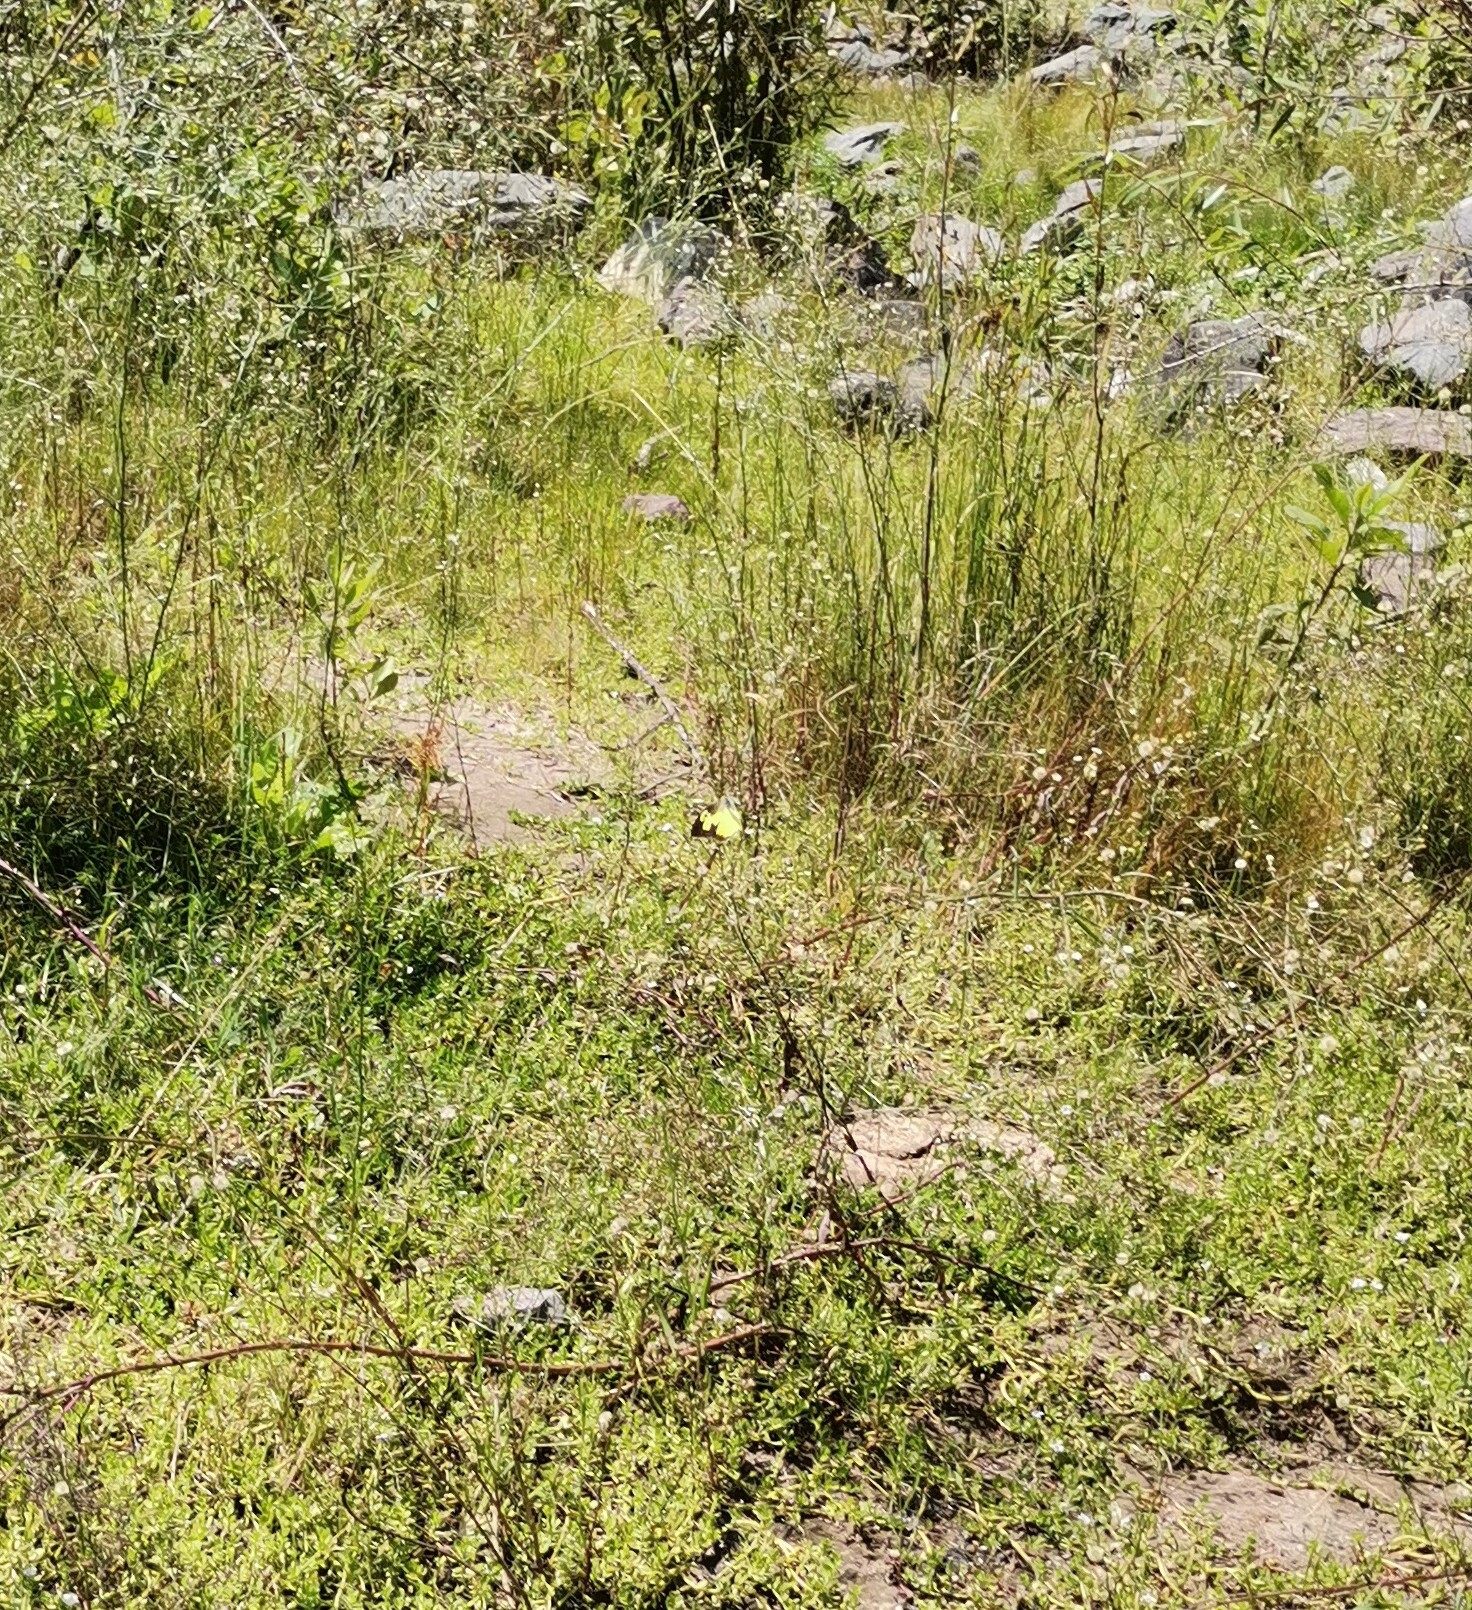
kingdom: Animalia
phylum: Arthropoda
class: Insecta
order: Lepidoptera
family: Pieridae
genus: Zerene
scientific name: Zerene cesonia
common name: Southern dogface
